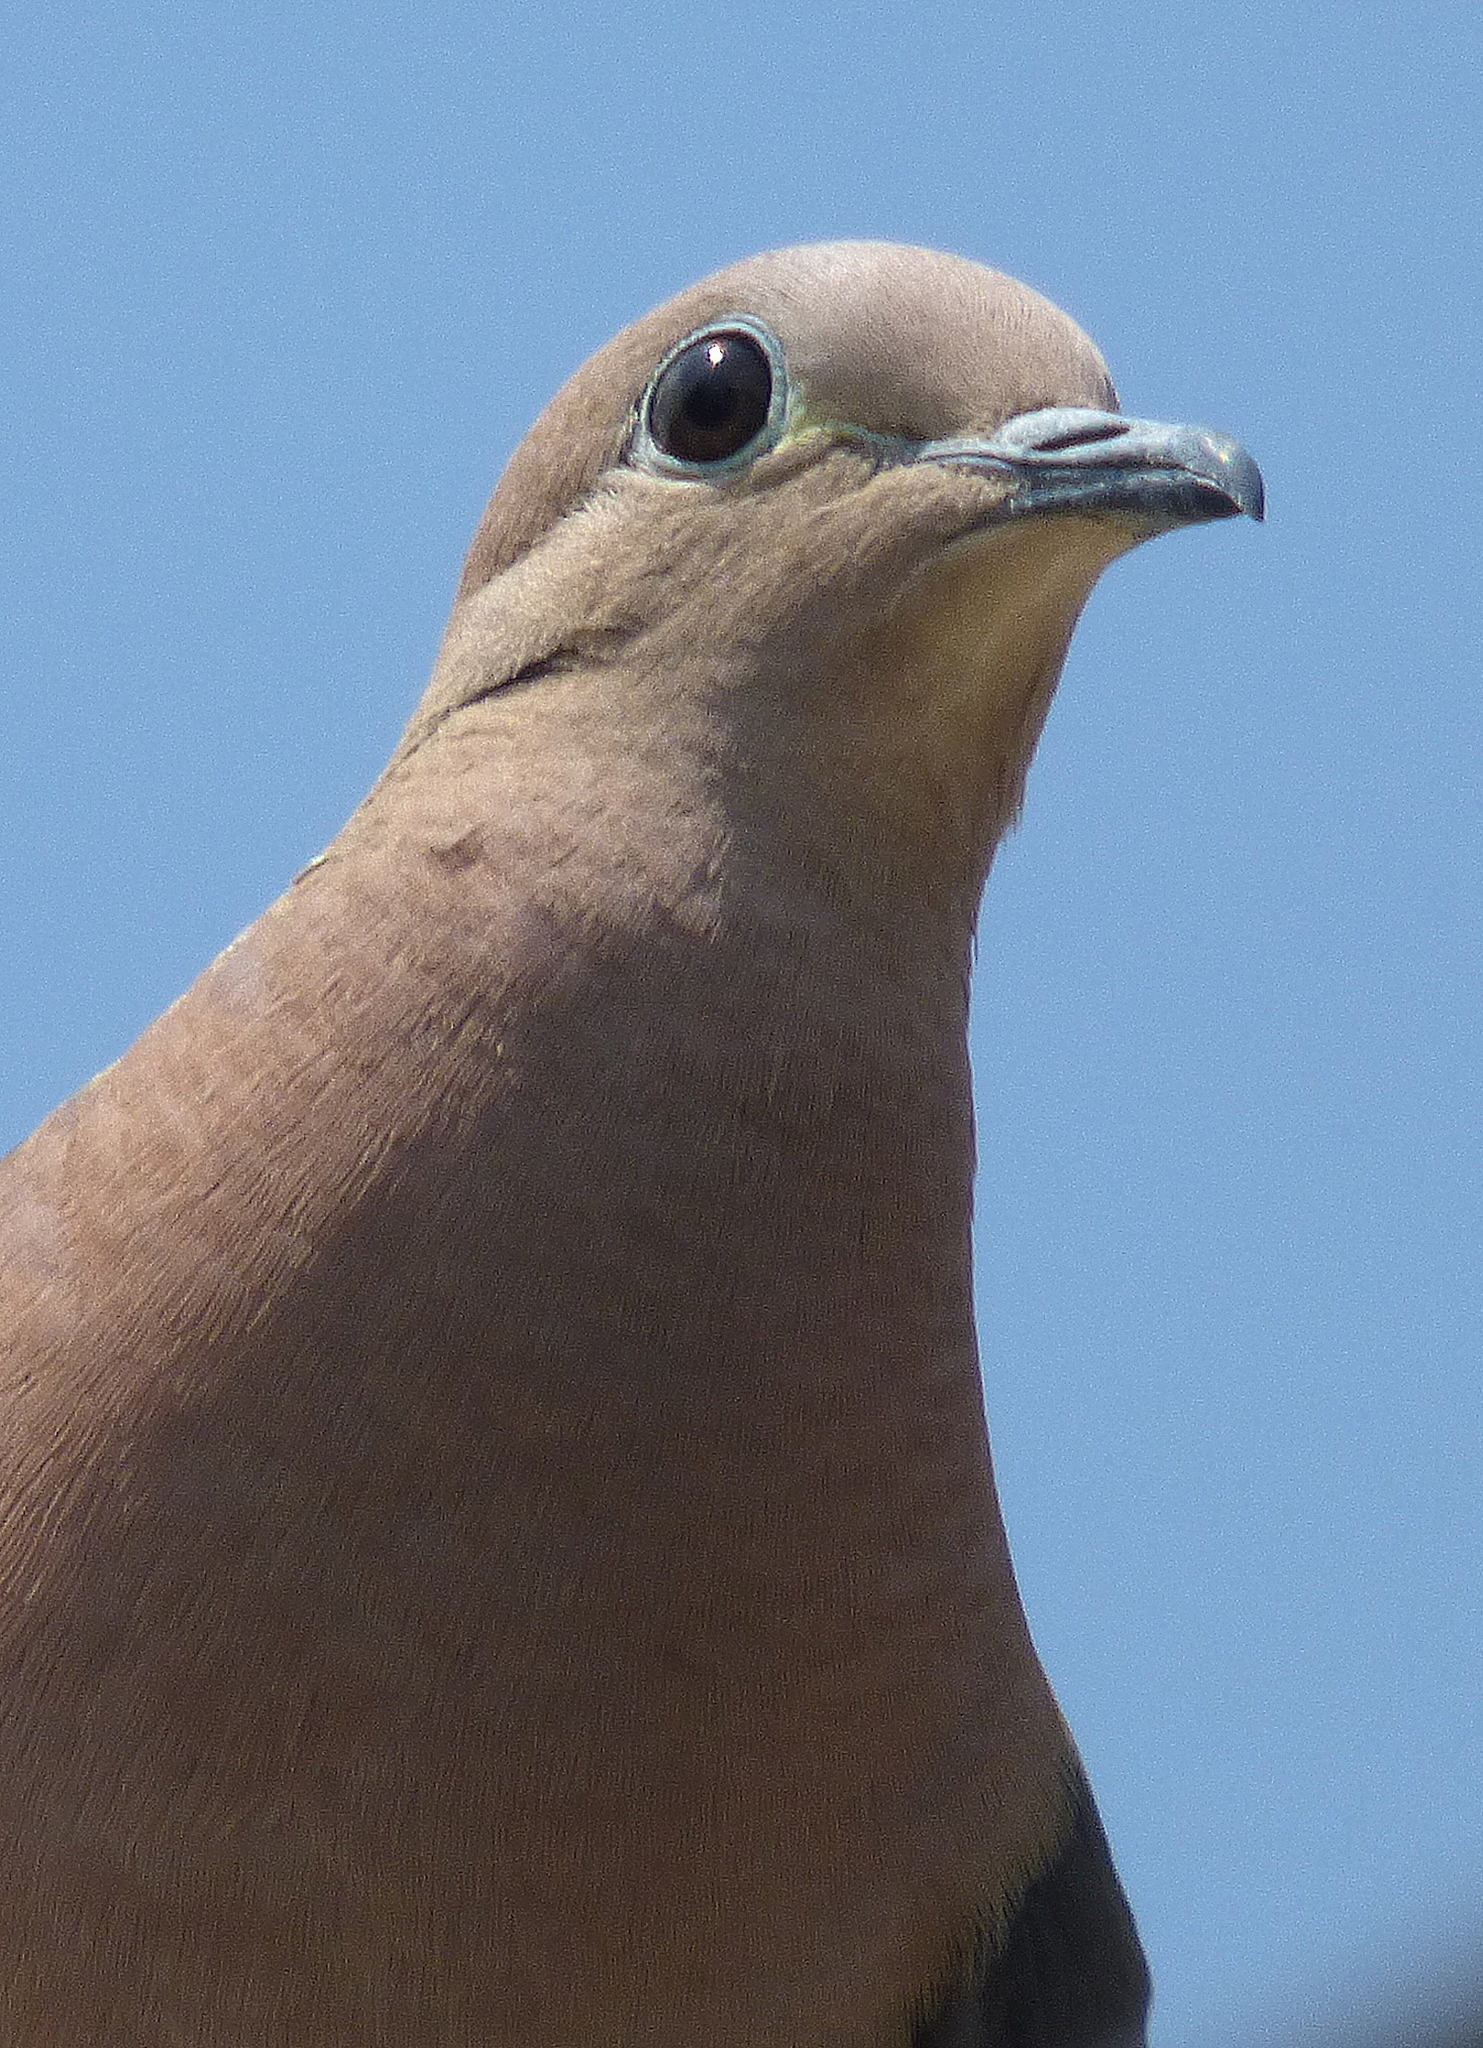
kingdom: Animalia
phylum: Chordata
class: Aves
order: Columbiformes
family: Columbidae
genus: Zenaida
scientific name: Zenaida auriculata
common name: Eared dove
